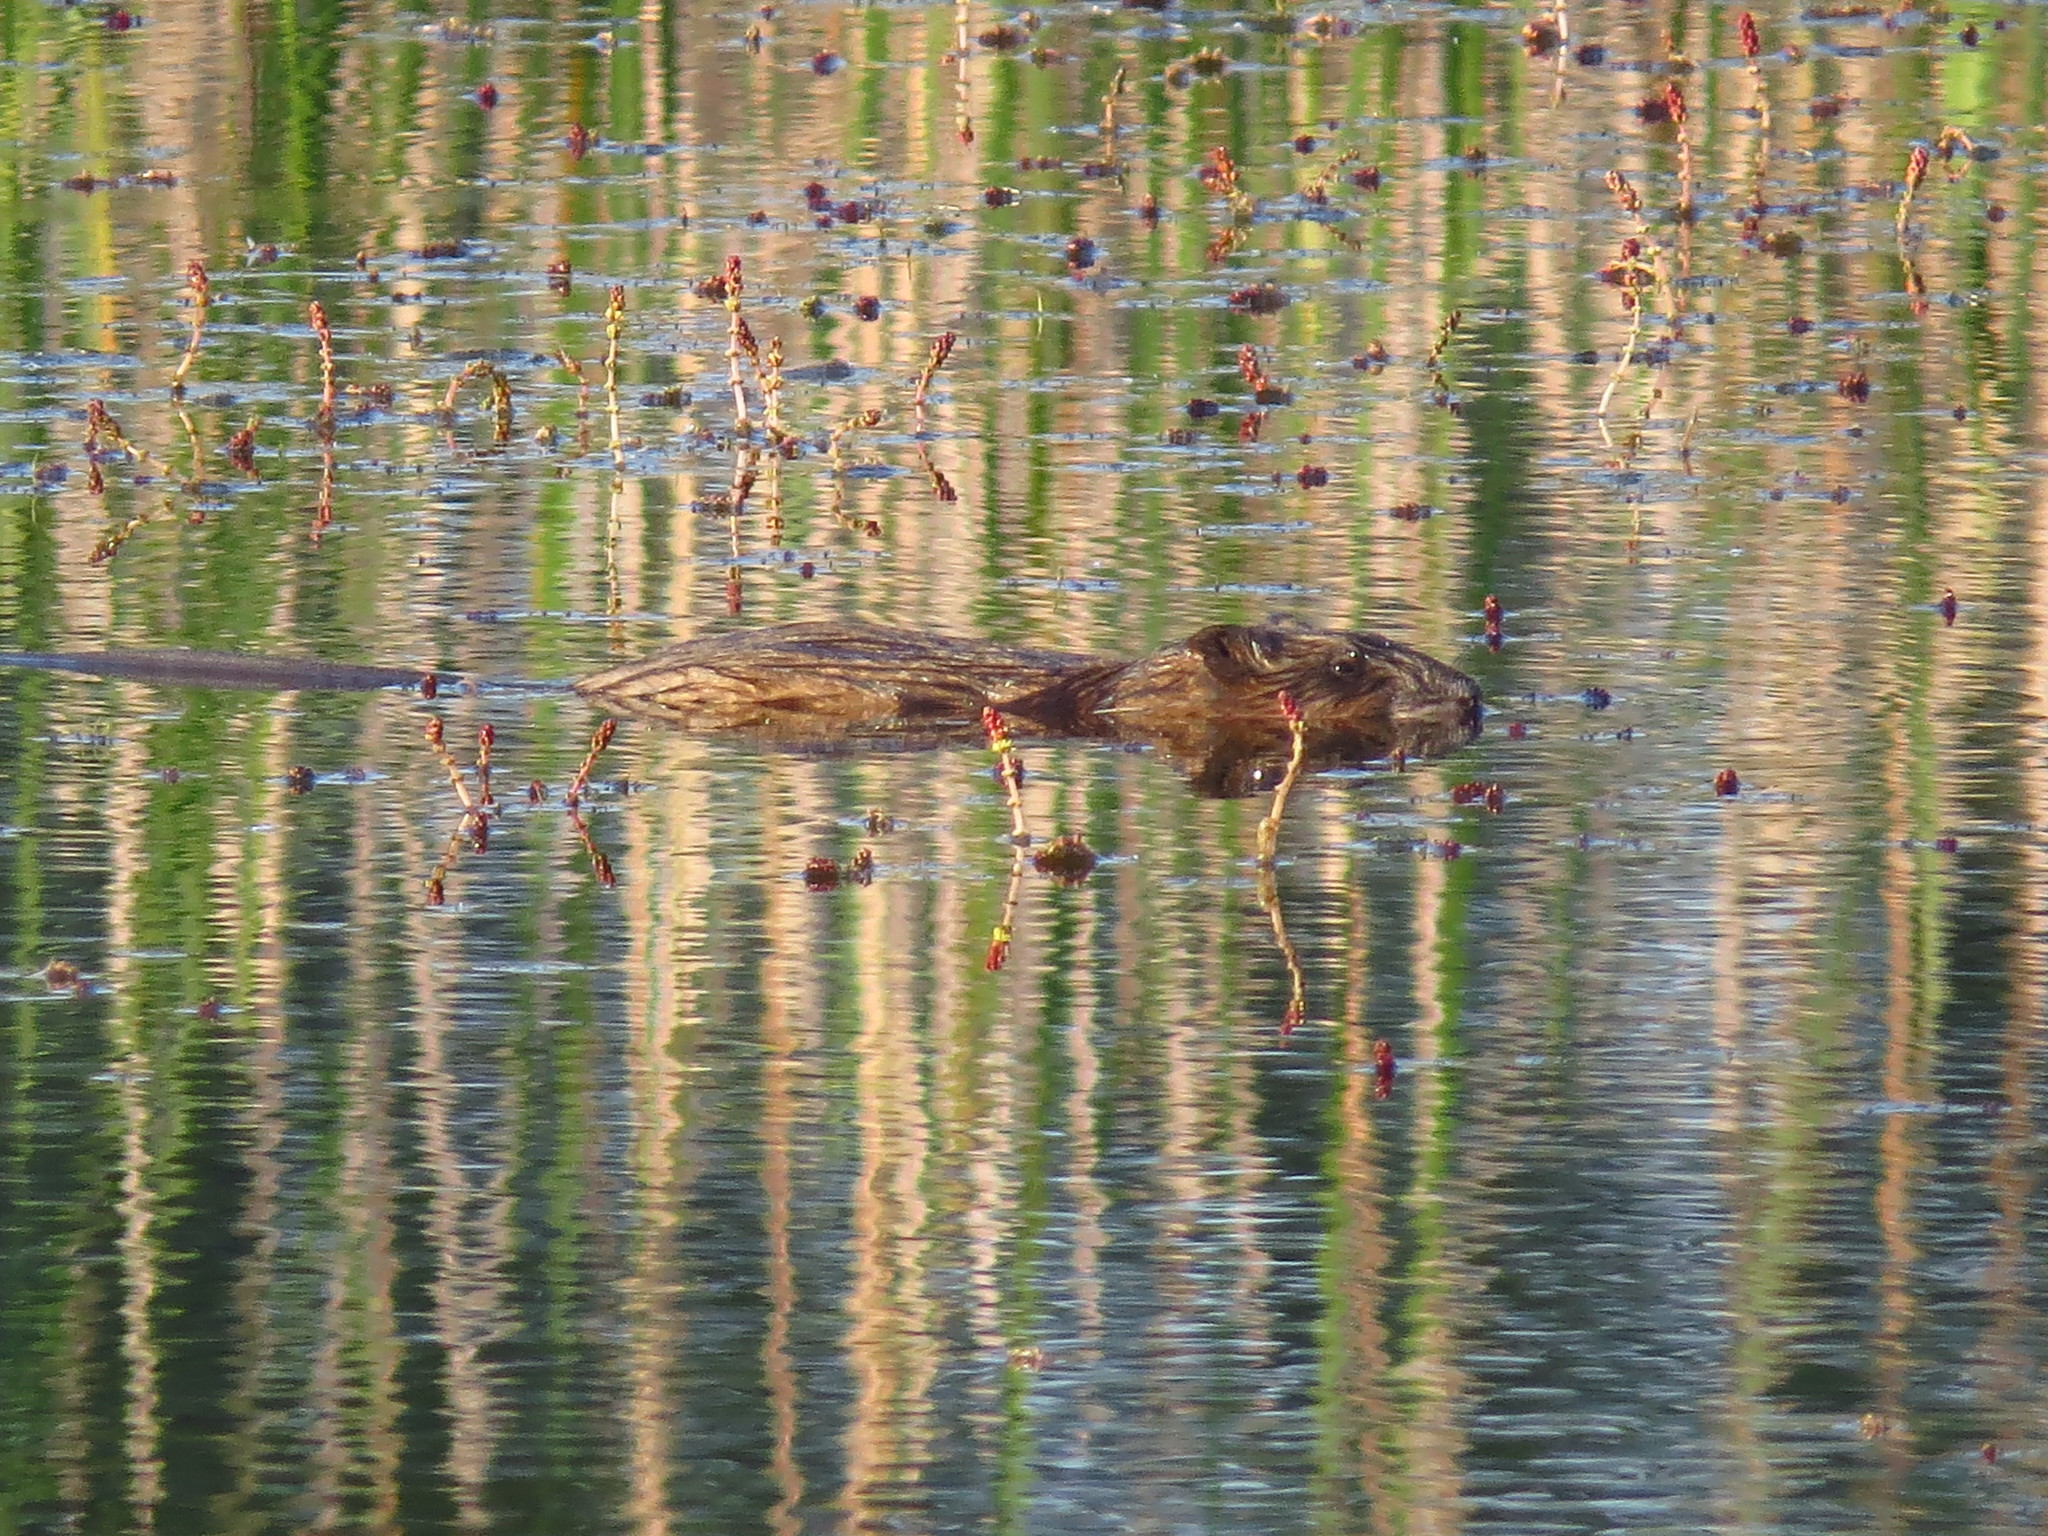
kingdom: Animalia
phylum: Chordata
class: Mammalia
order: Rodentia
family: Cricetidae
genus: Ondatra
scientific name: Ondatra zibethicus
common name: Muskrat
